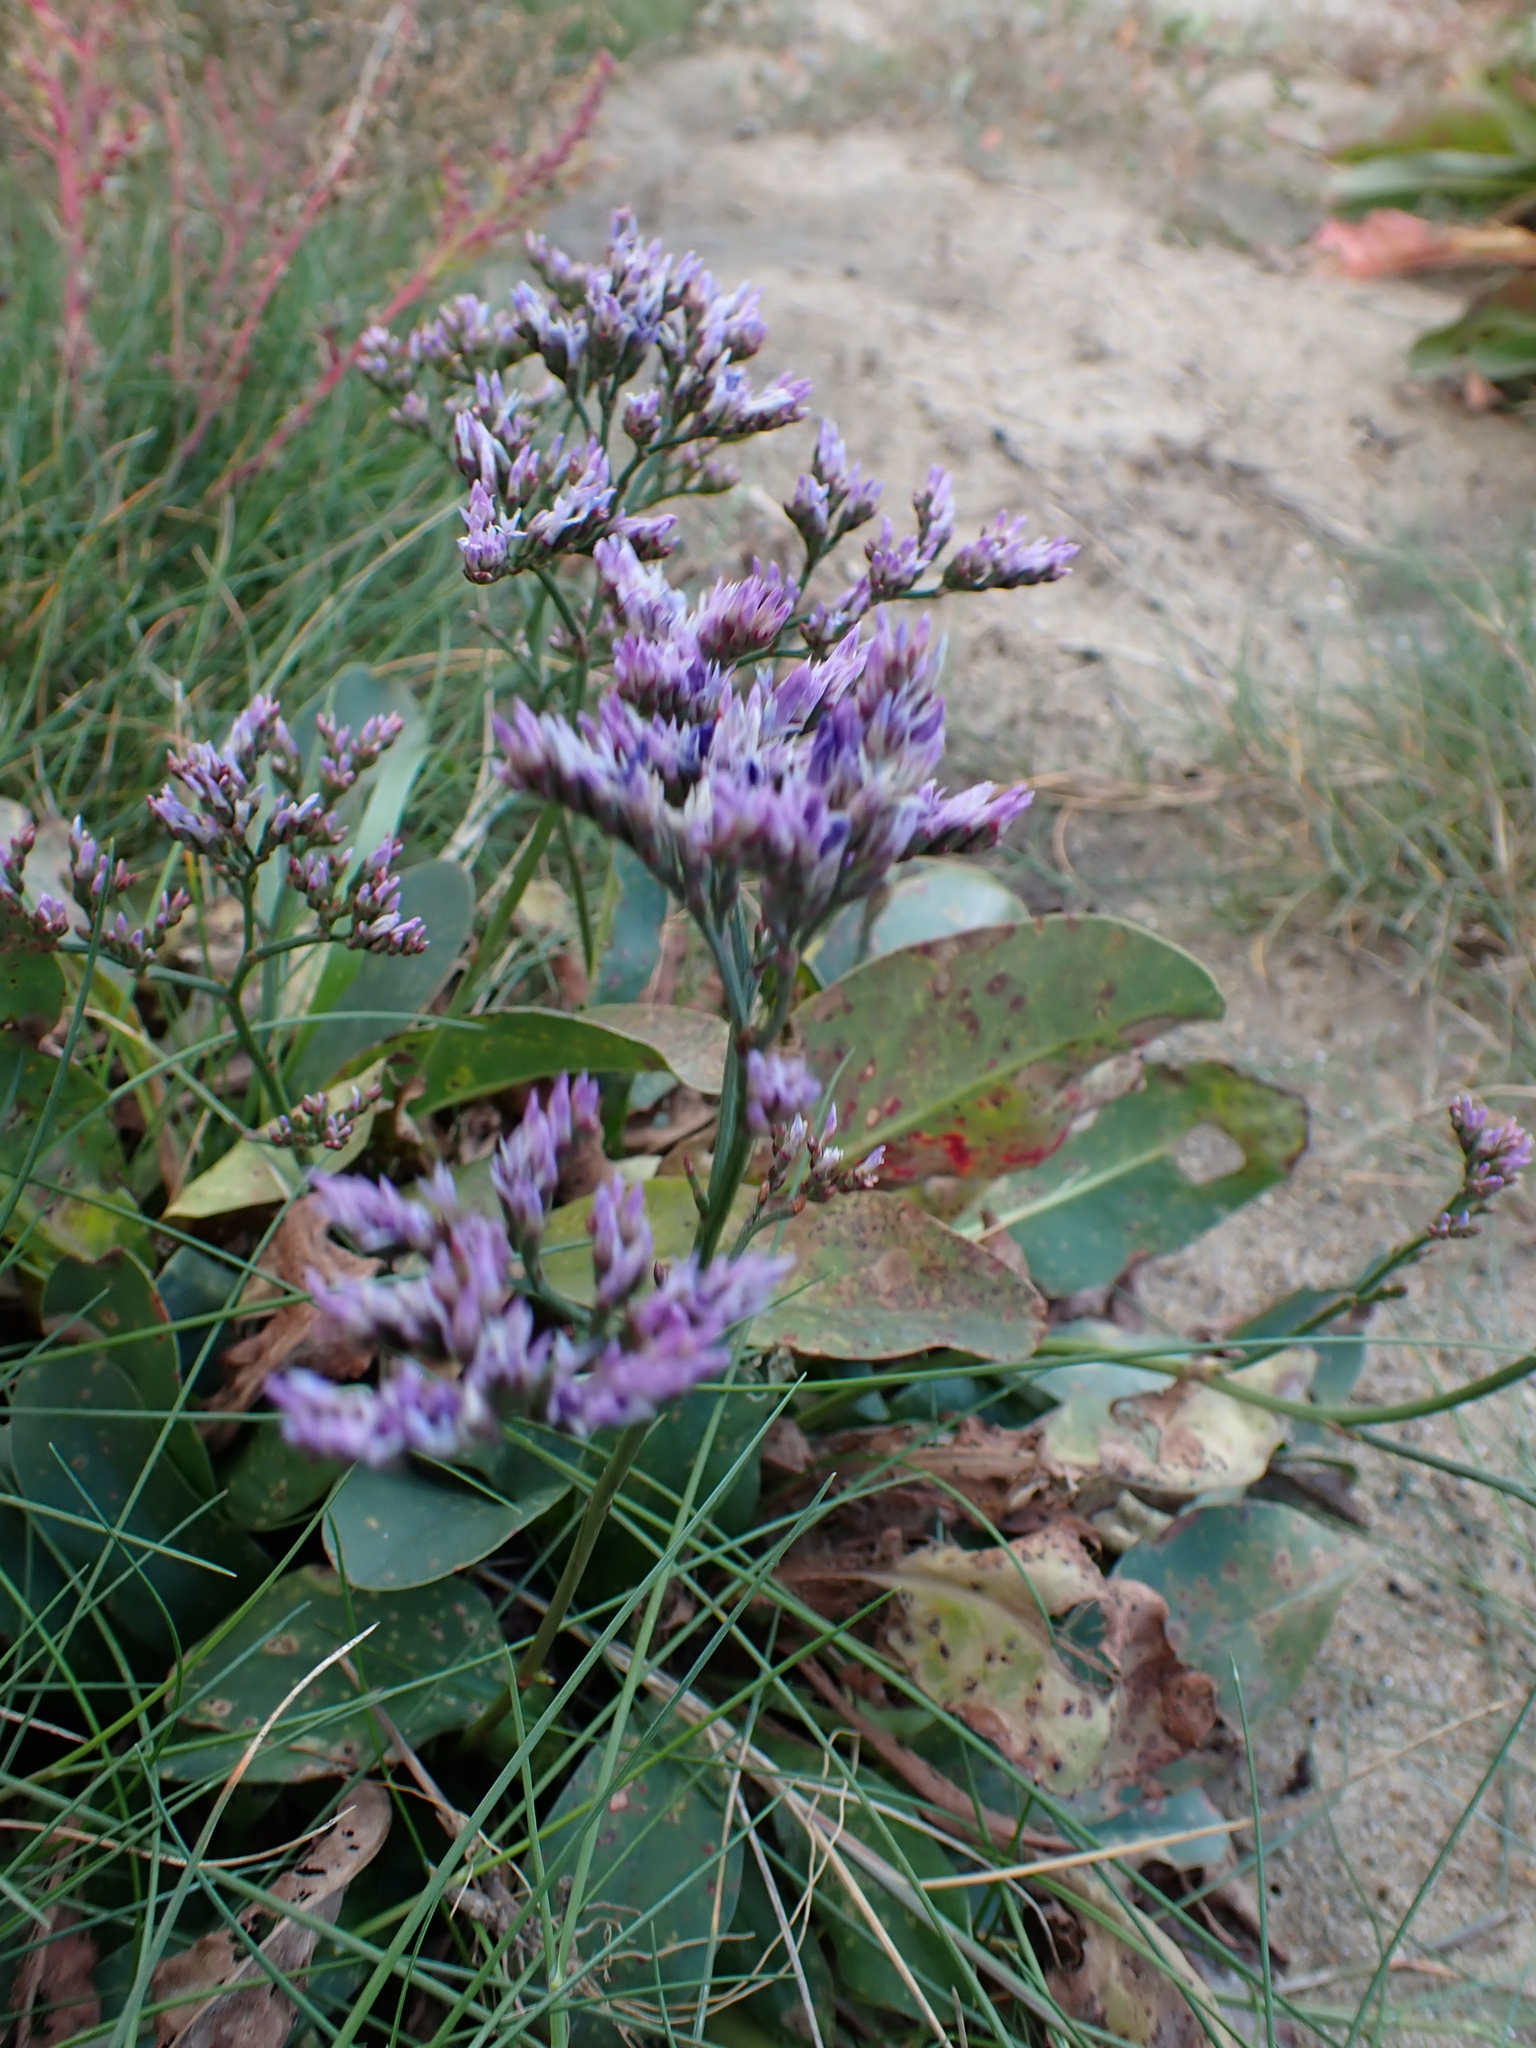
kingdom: Plantae
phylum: Tracheophyta
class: Magnoliopsida
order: Caryophyllales
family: Plumbaginaceae
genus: Limonium
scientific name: Limonium vulgare
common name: Common sea-lavender
